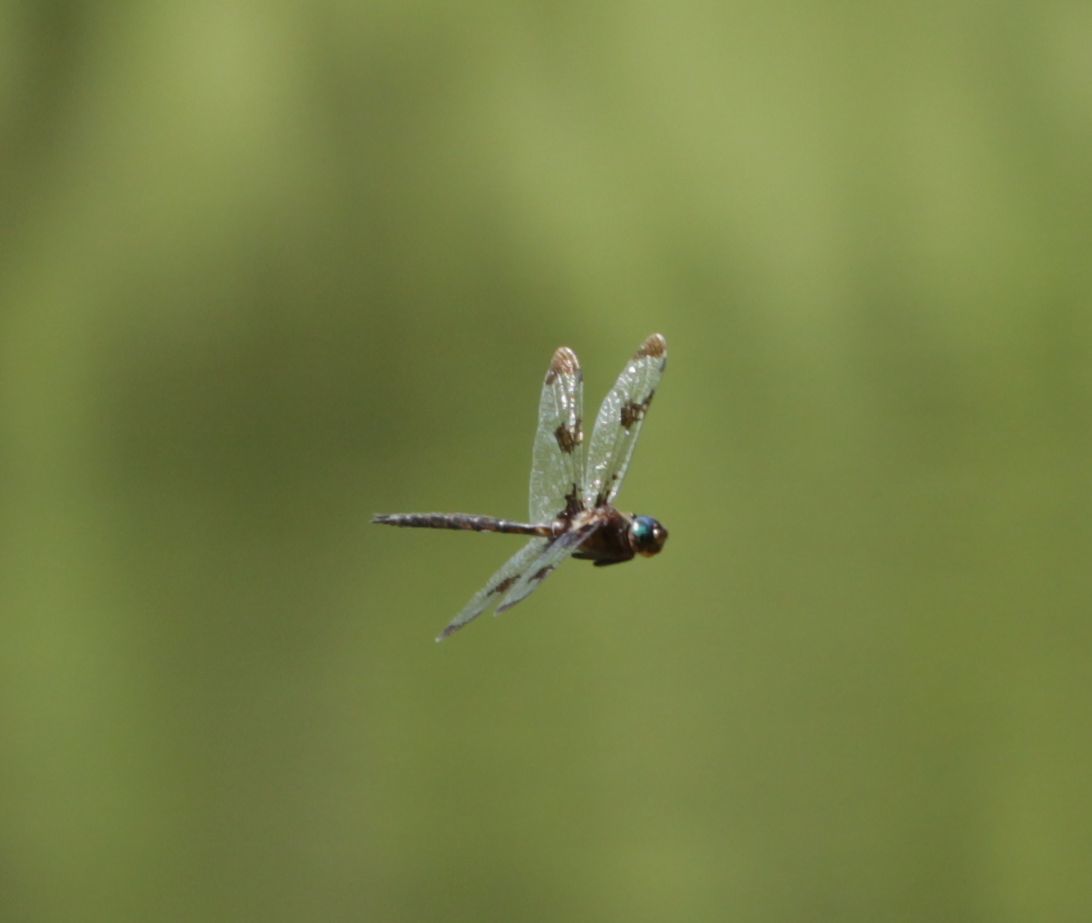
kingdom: Animalia
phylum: Arthropoda
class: Insecta
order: Odonata
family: Corduliidae
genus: Epitheca
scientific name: Epitheca princeps
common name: Prince baskettail
